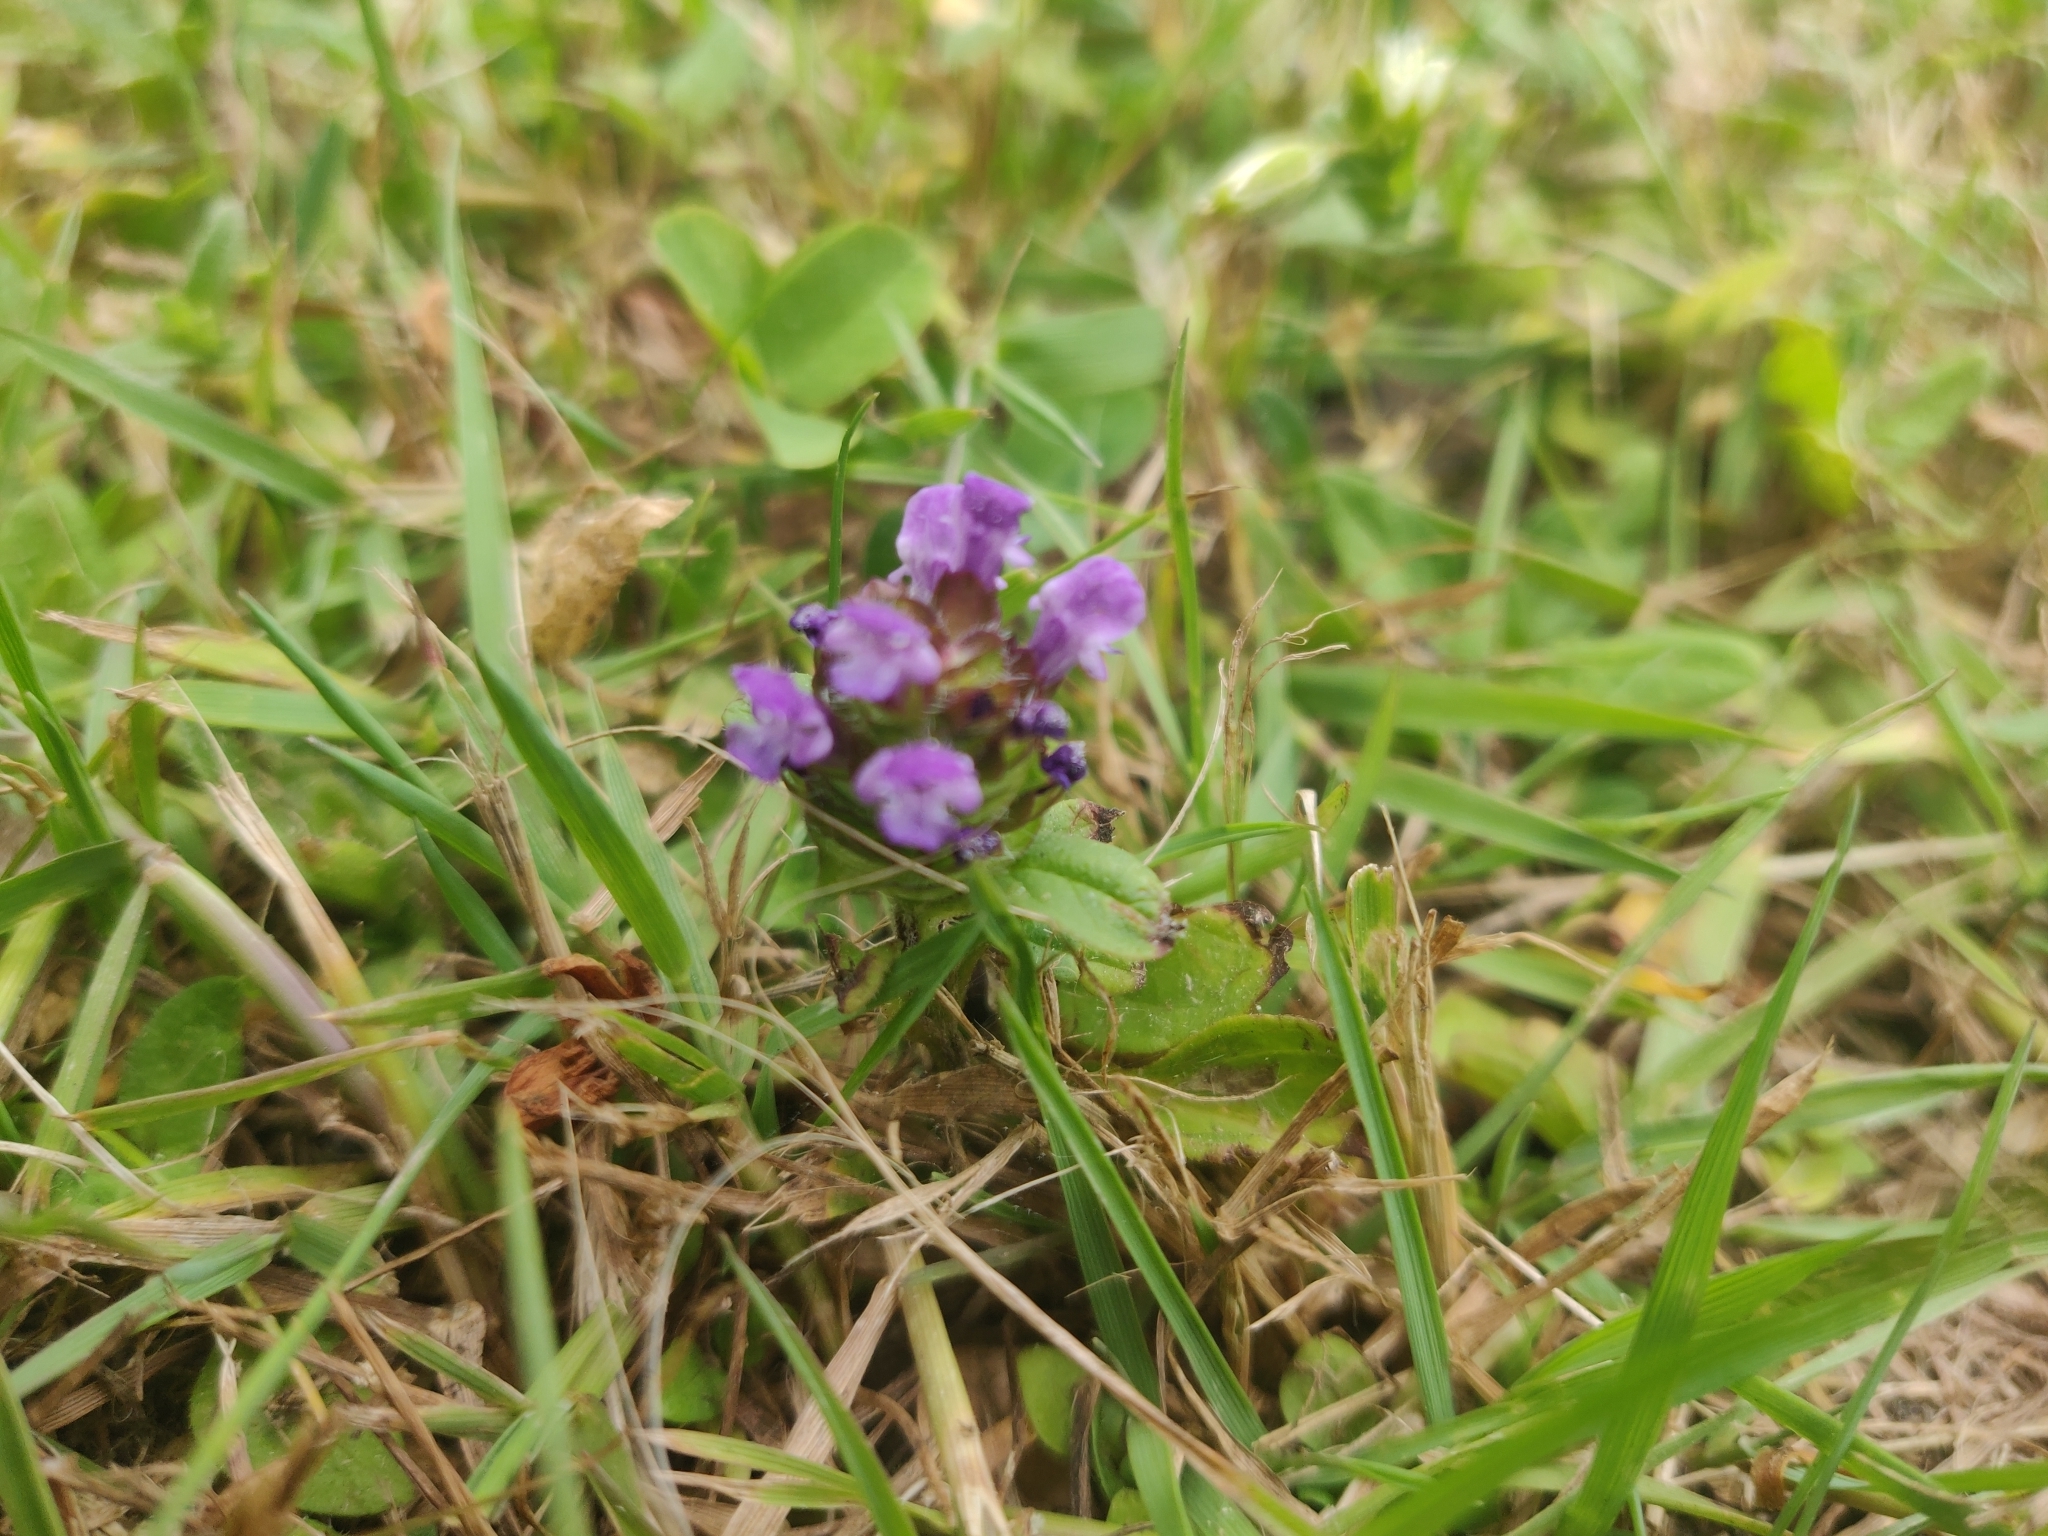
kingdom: Plantae
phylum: Tracheophyta
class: Magnoliopsida
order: Lamiales
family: Lamiaceae
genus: Prunella
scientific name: Prunella vulgaris
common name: Heal-all
